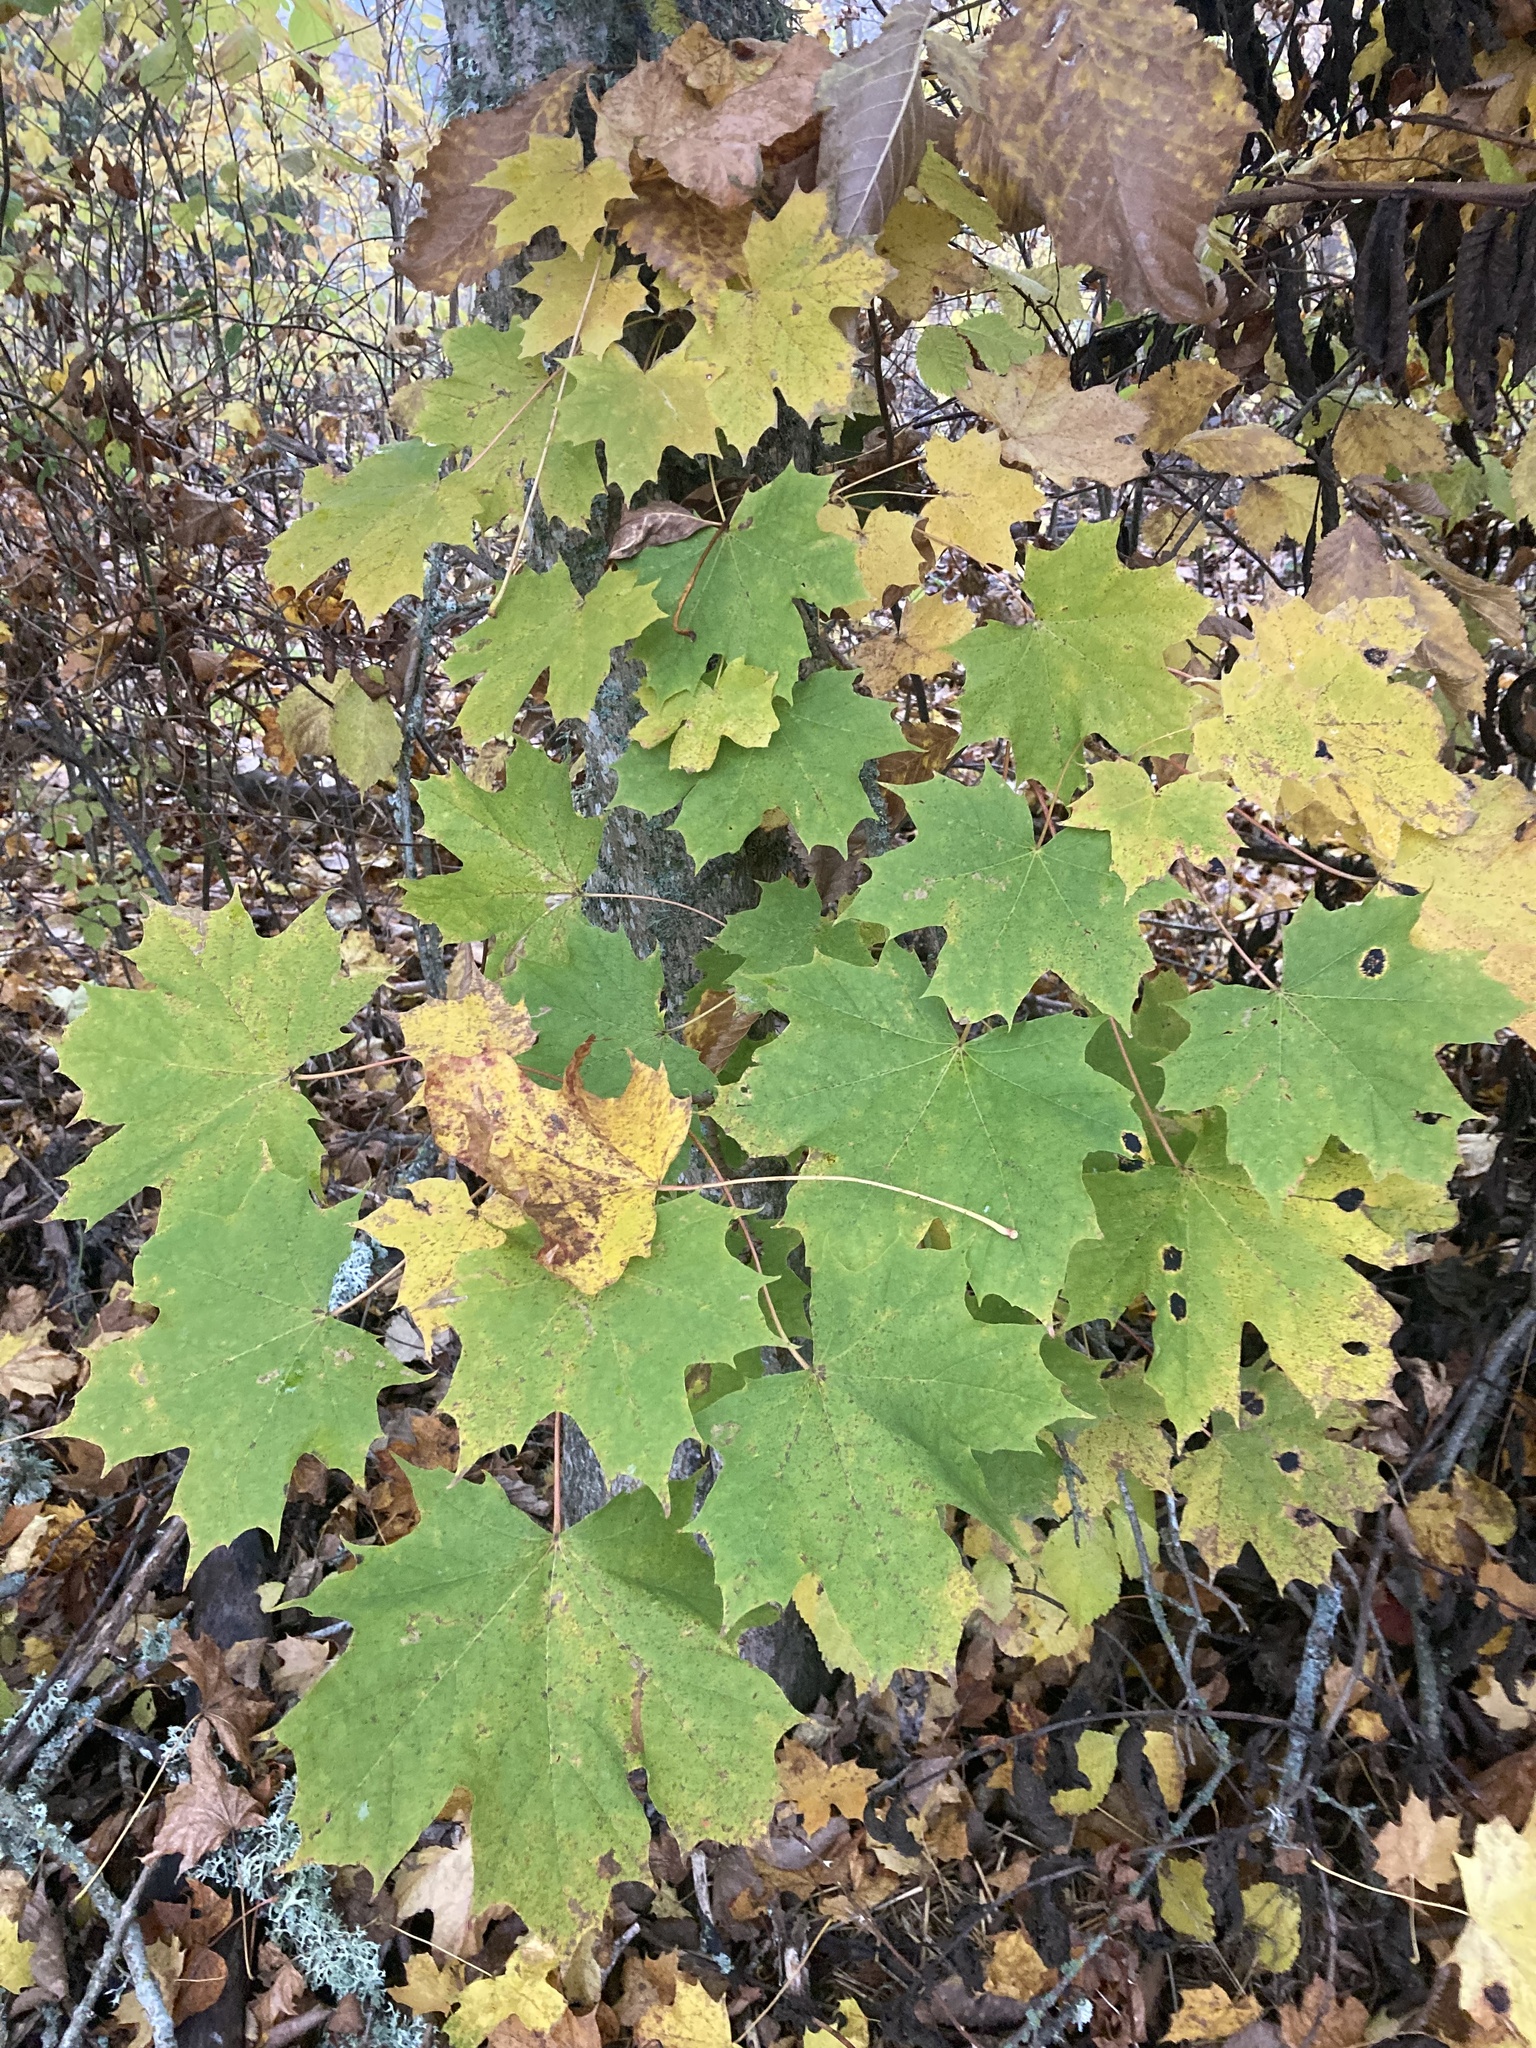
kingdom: Plantae
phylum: Tracheophyta
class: Magnoliopsida
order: Sapindales
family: Sapindaceae
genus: Acer
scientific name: Acer platanoides
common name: Norway maple
